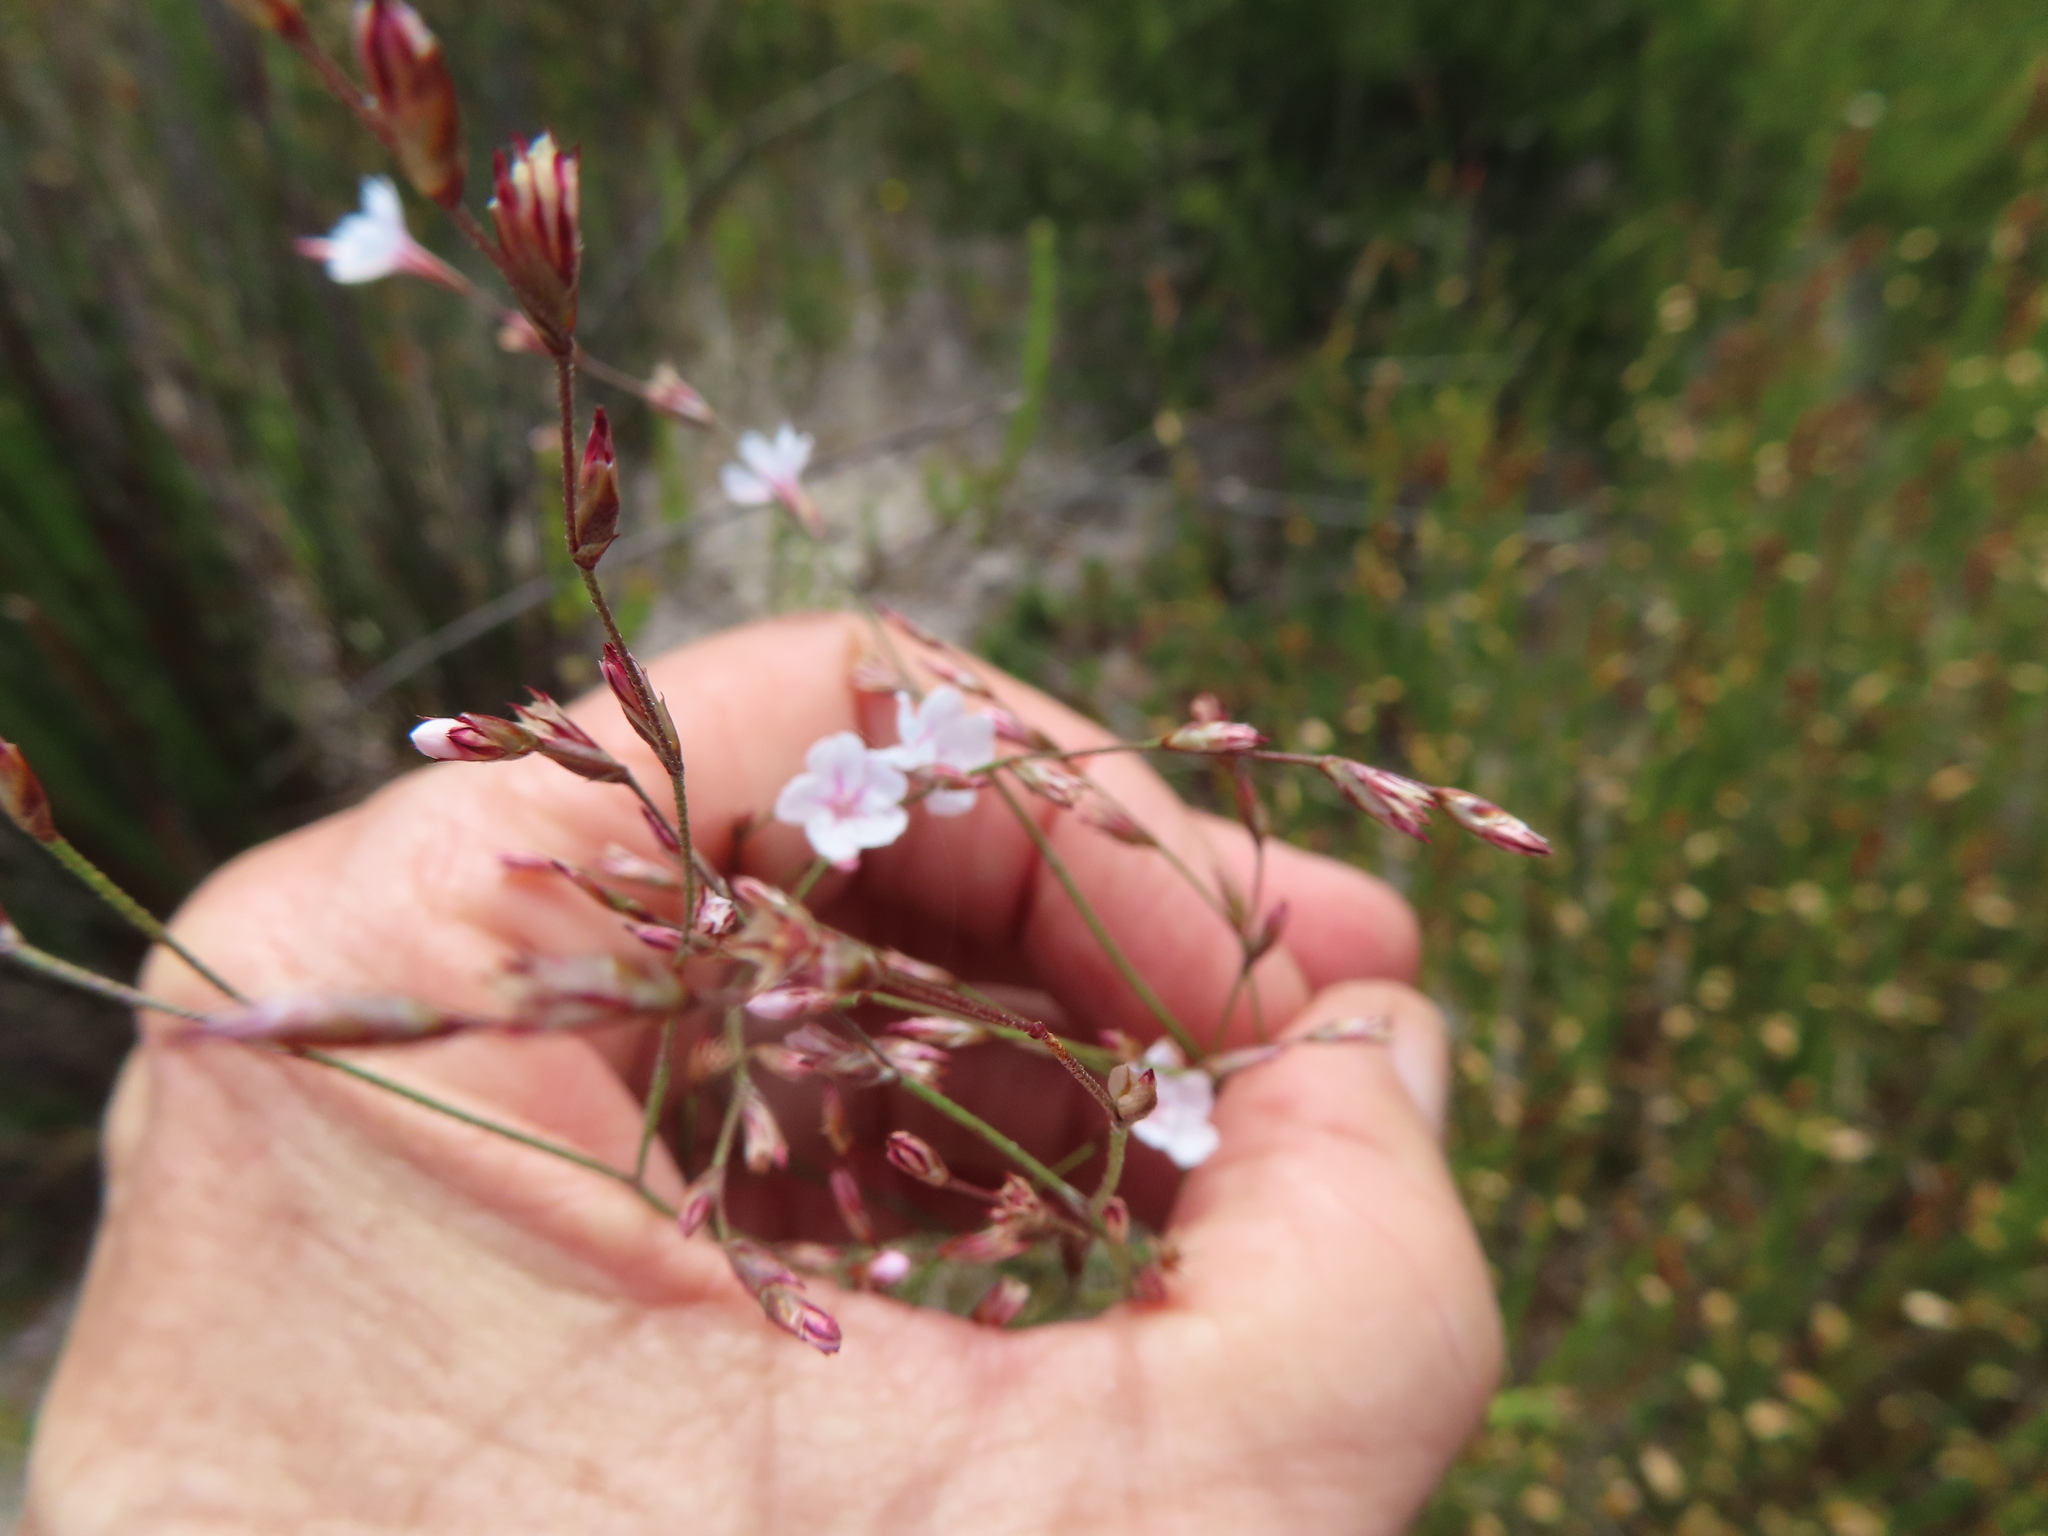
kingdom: Plantae
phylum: Tracheophyta
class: Magnoliopsida
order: Caryophyllales
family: Plumbaginaceae
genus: Limonium
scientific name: Limonium anthericoides
